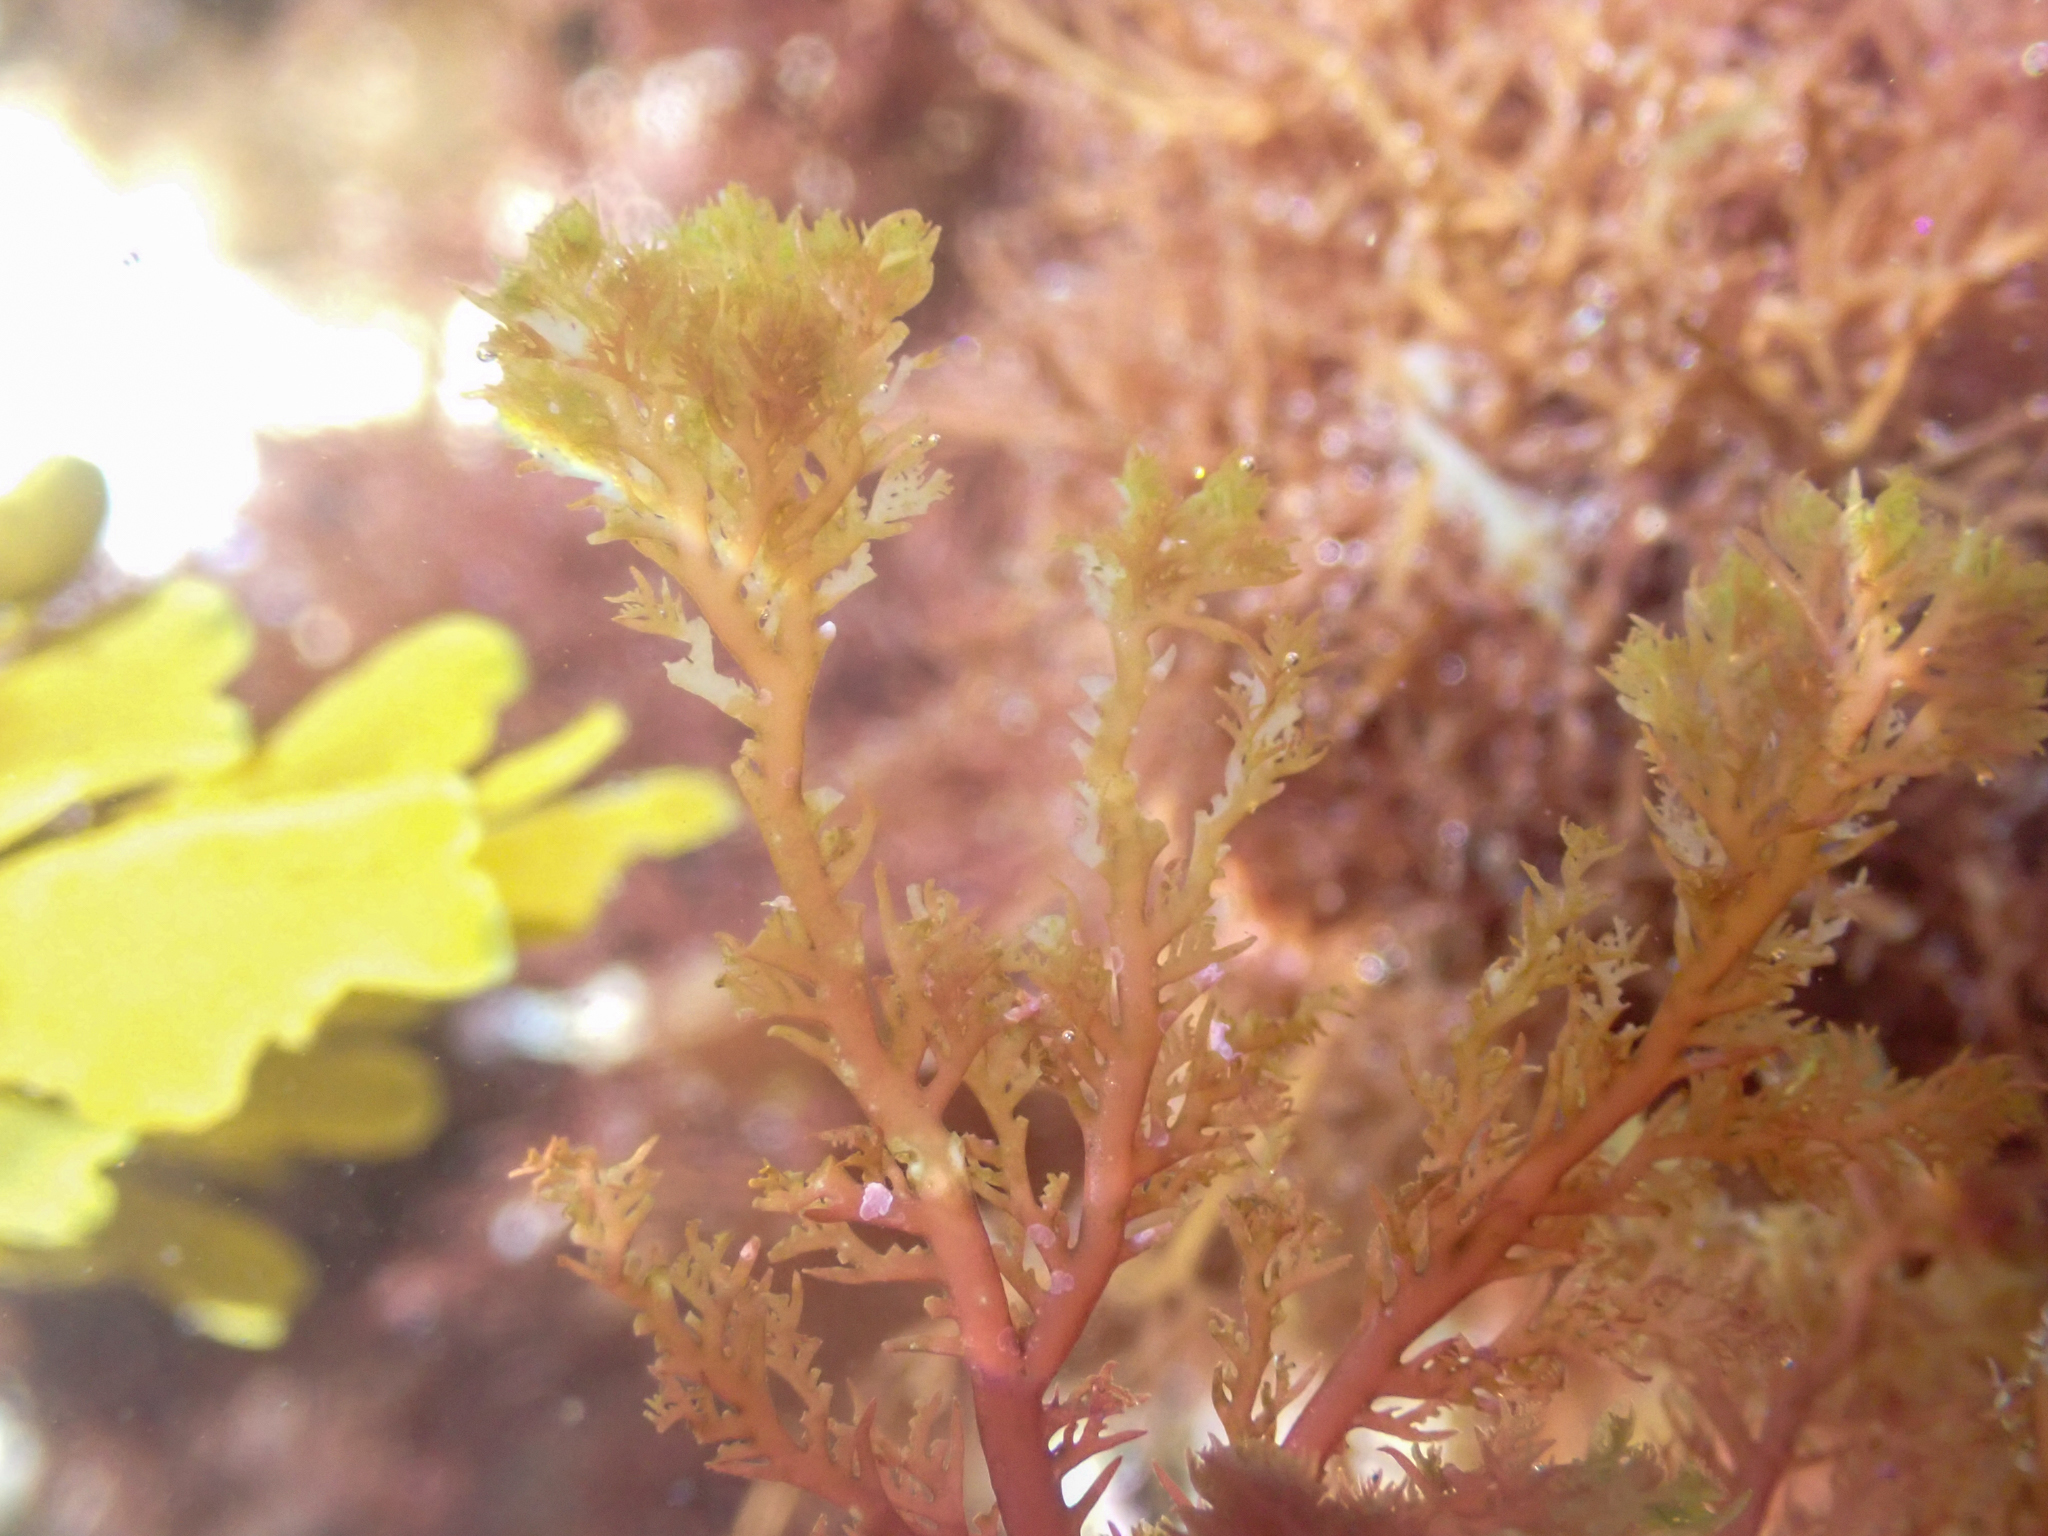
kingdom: Plantae
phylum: Rhodophyta
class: Florideophyceae
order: Plocamiales
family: Plocamiaceae
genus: Plocamium
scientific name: Plocamium cartilagineum
